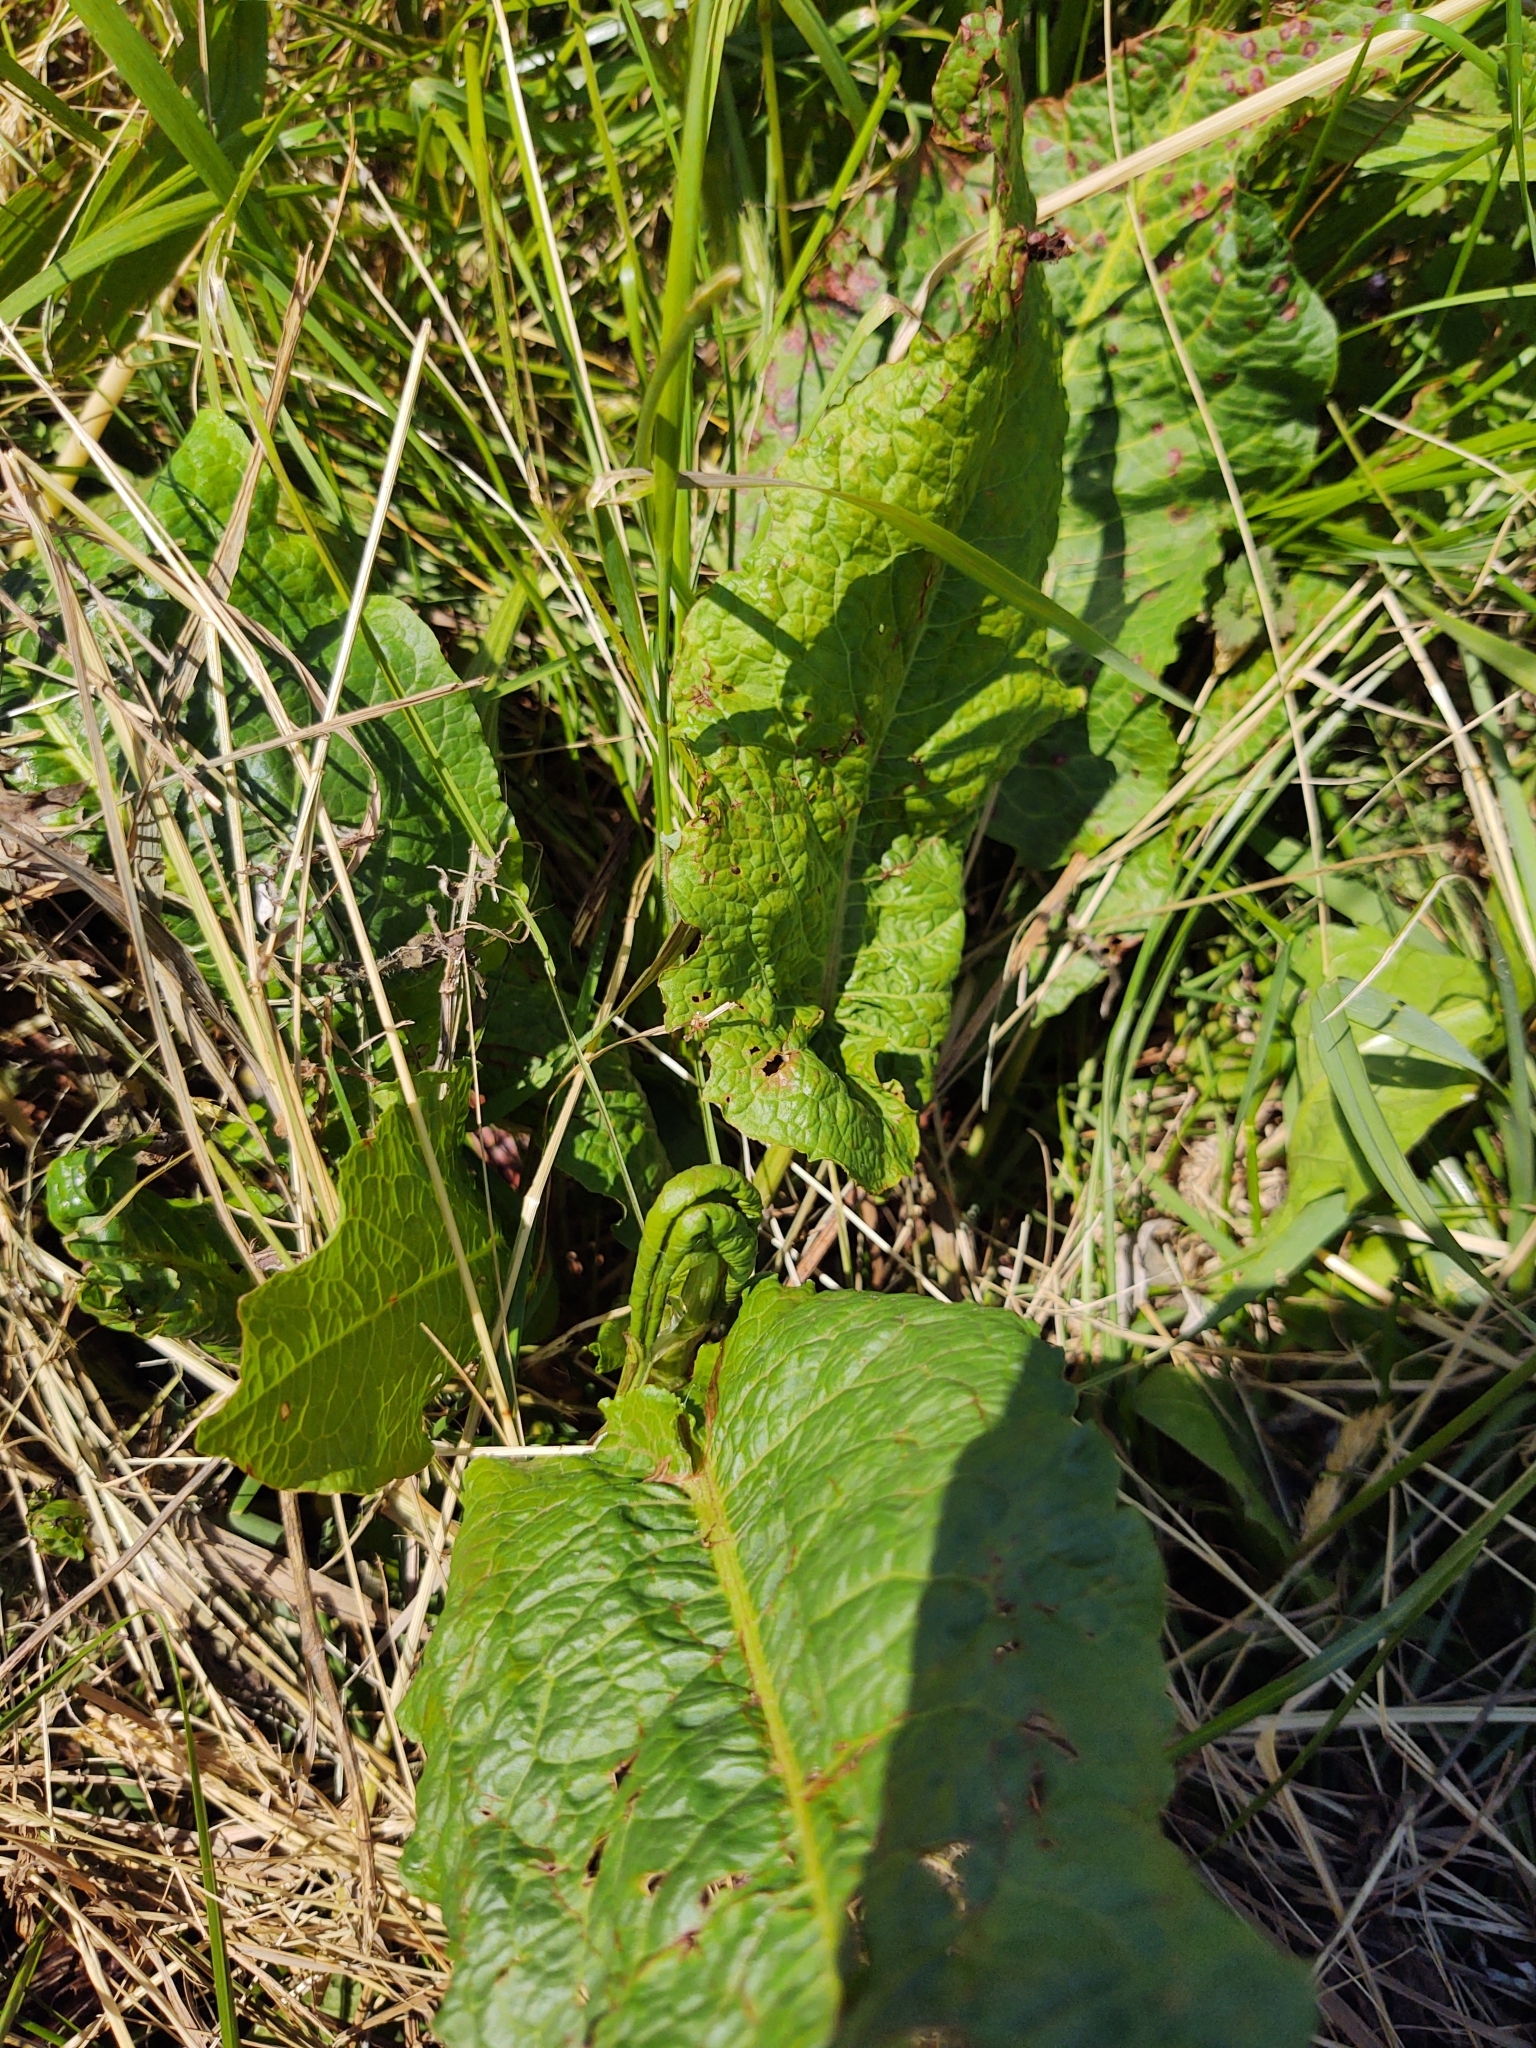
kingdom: Plantae
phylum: Tracheophyta
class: Magnoliopsida
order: Caryophyllales
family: Polygonaceae
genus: Rumex
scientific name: Rumex obtusifolius
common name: Bitter dock
